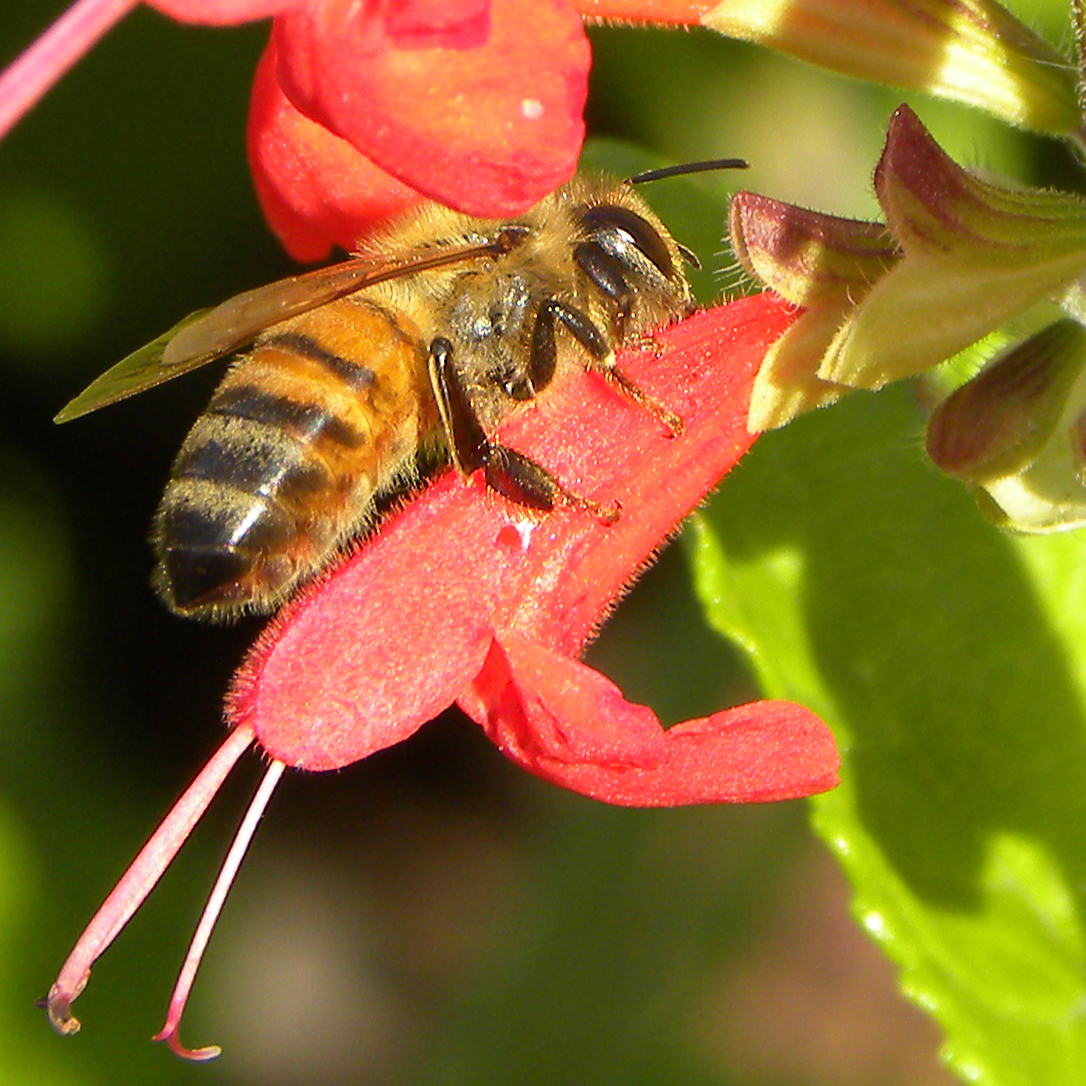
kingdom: Animalia
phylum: Arthropoda
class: Insecta
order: Hymenoptera
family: Apidae
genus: Apis
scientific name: Apis mellifera
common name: Honey bee
